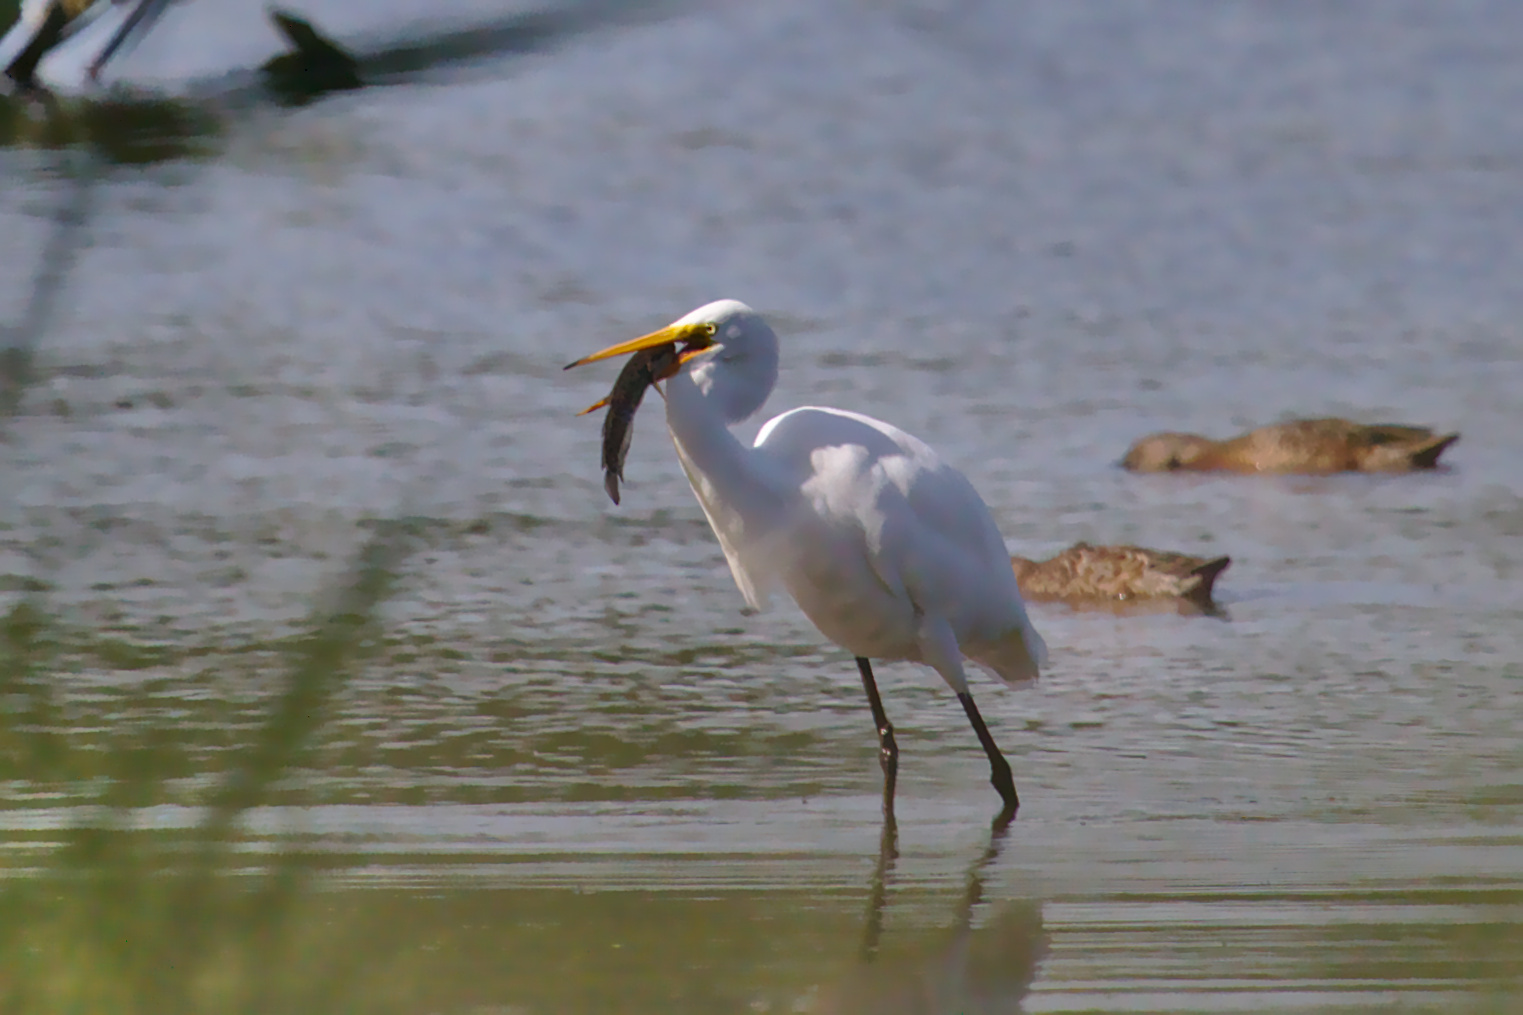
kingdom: Animalia
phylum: Chordata
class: Aves
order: Pelecaniformes
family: Ardeidae
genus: Ardea
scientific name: Ardea alba
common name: Great egret
